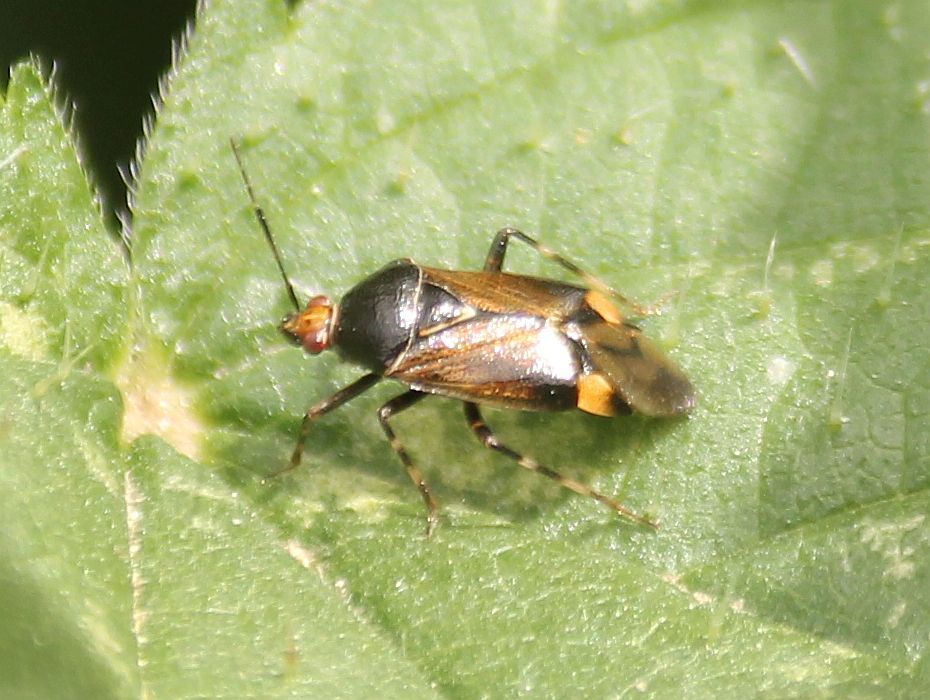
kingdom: Animalia
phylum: Arthropoda
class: Insecta
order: Hemiptera
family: Miridae
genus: Deraeocoris
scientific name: Deraeocoris flavilinea
